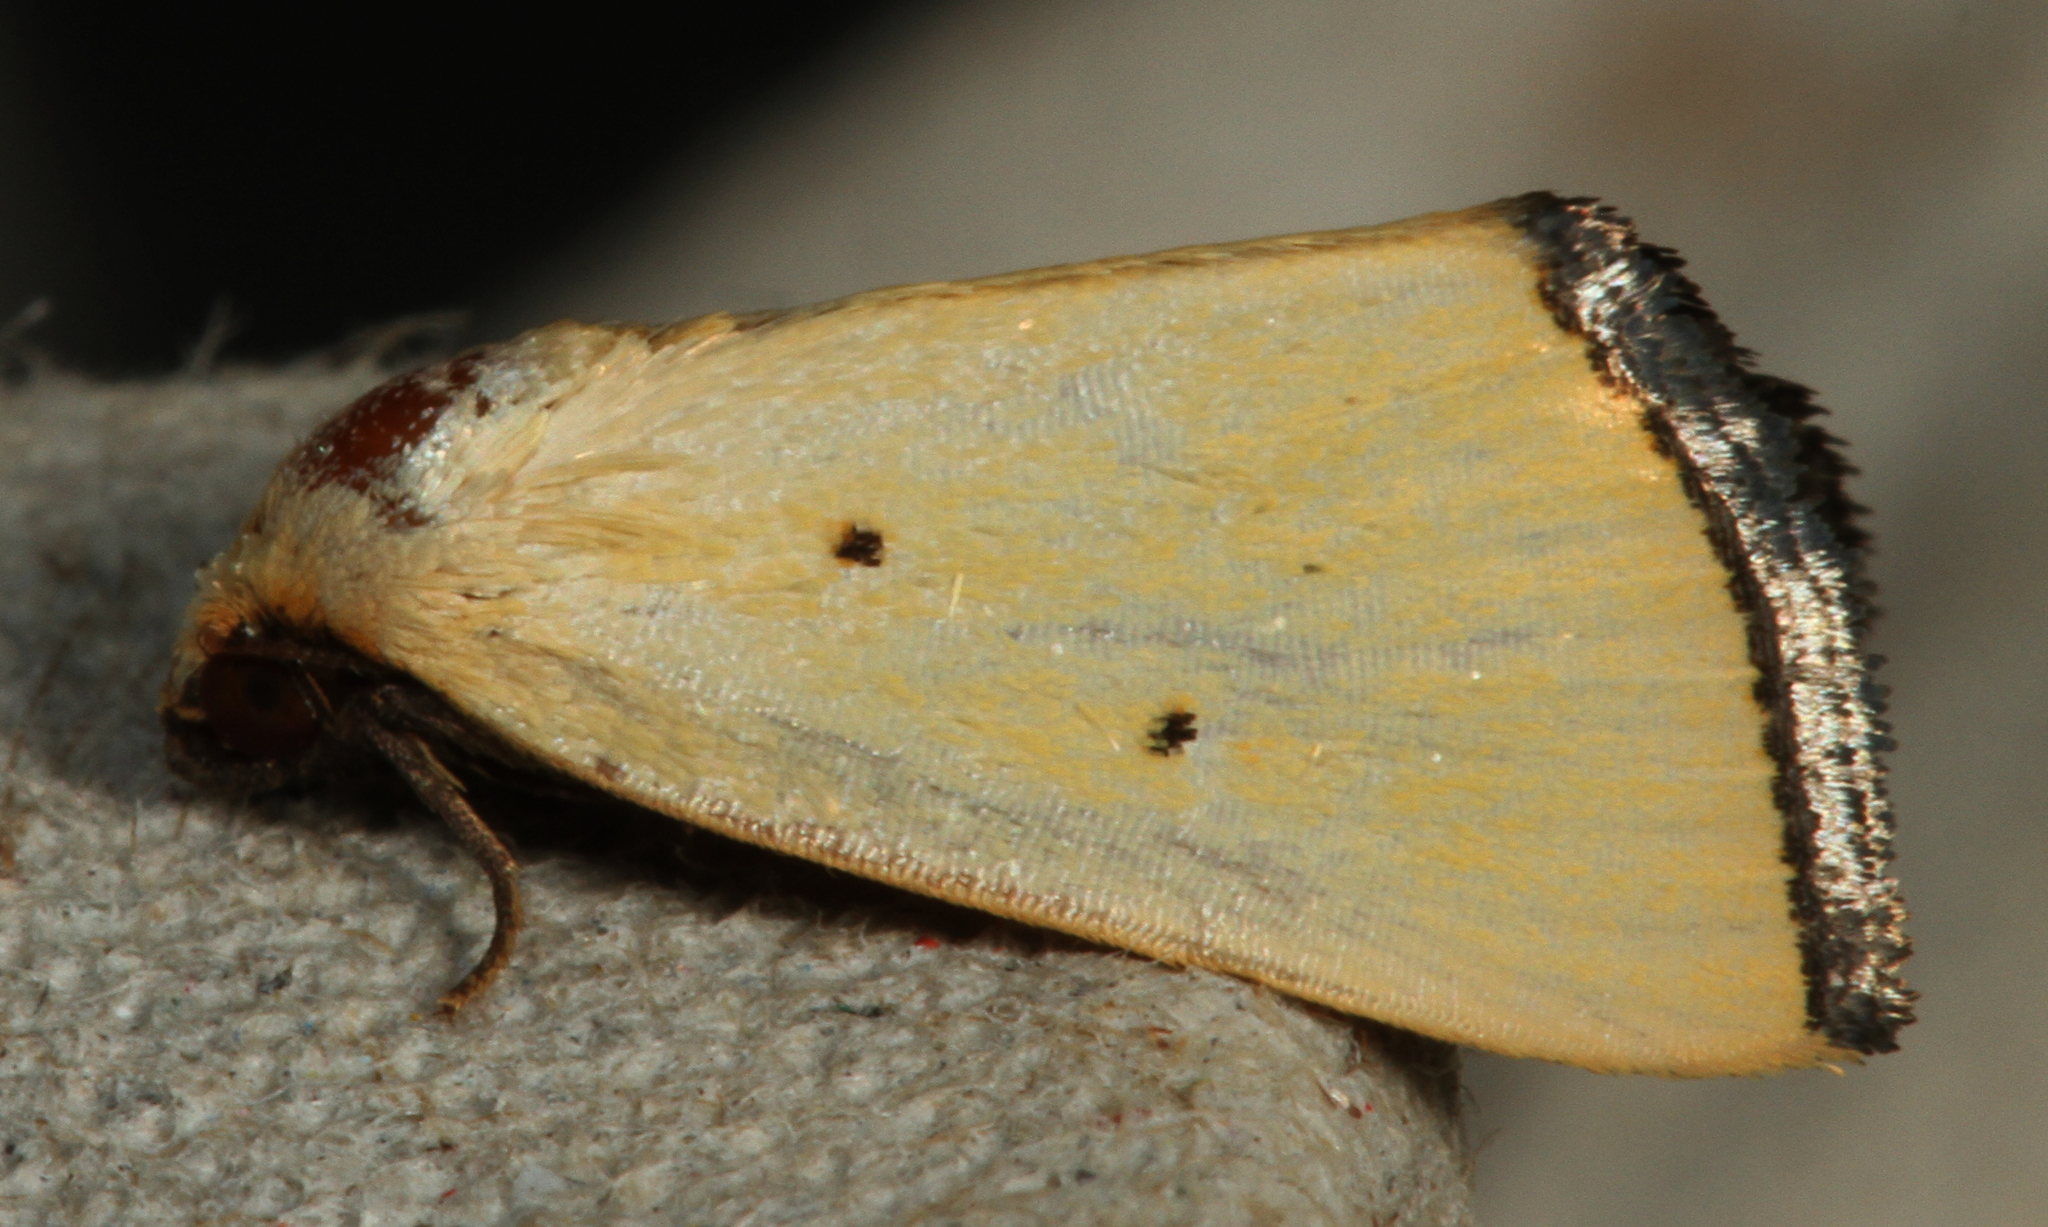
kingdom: Animalia
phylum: Arthropoda
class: Insecta
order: Lepidoptera
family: Noctuidae
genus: Marimatha
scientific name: Marimatha nigrofimbria
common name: Black-bordered lemon moth
